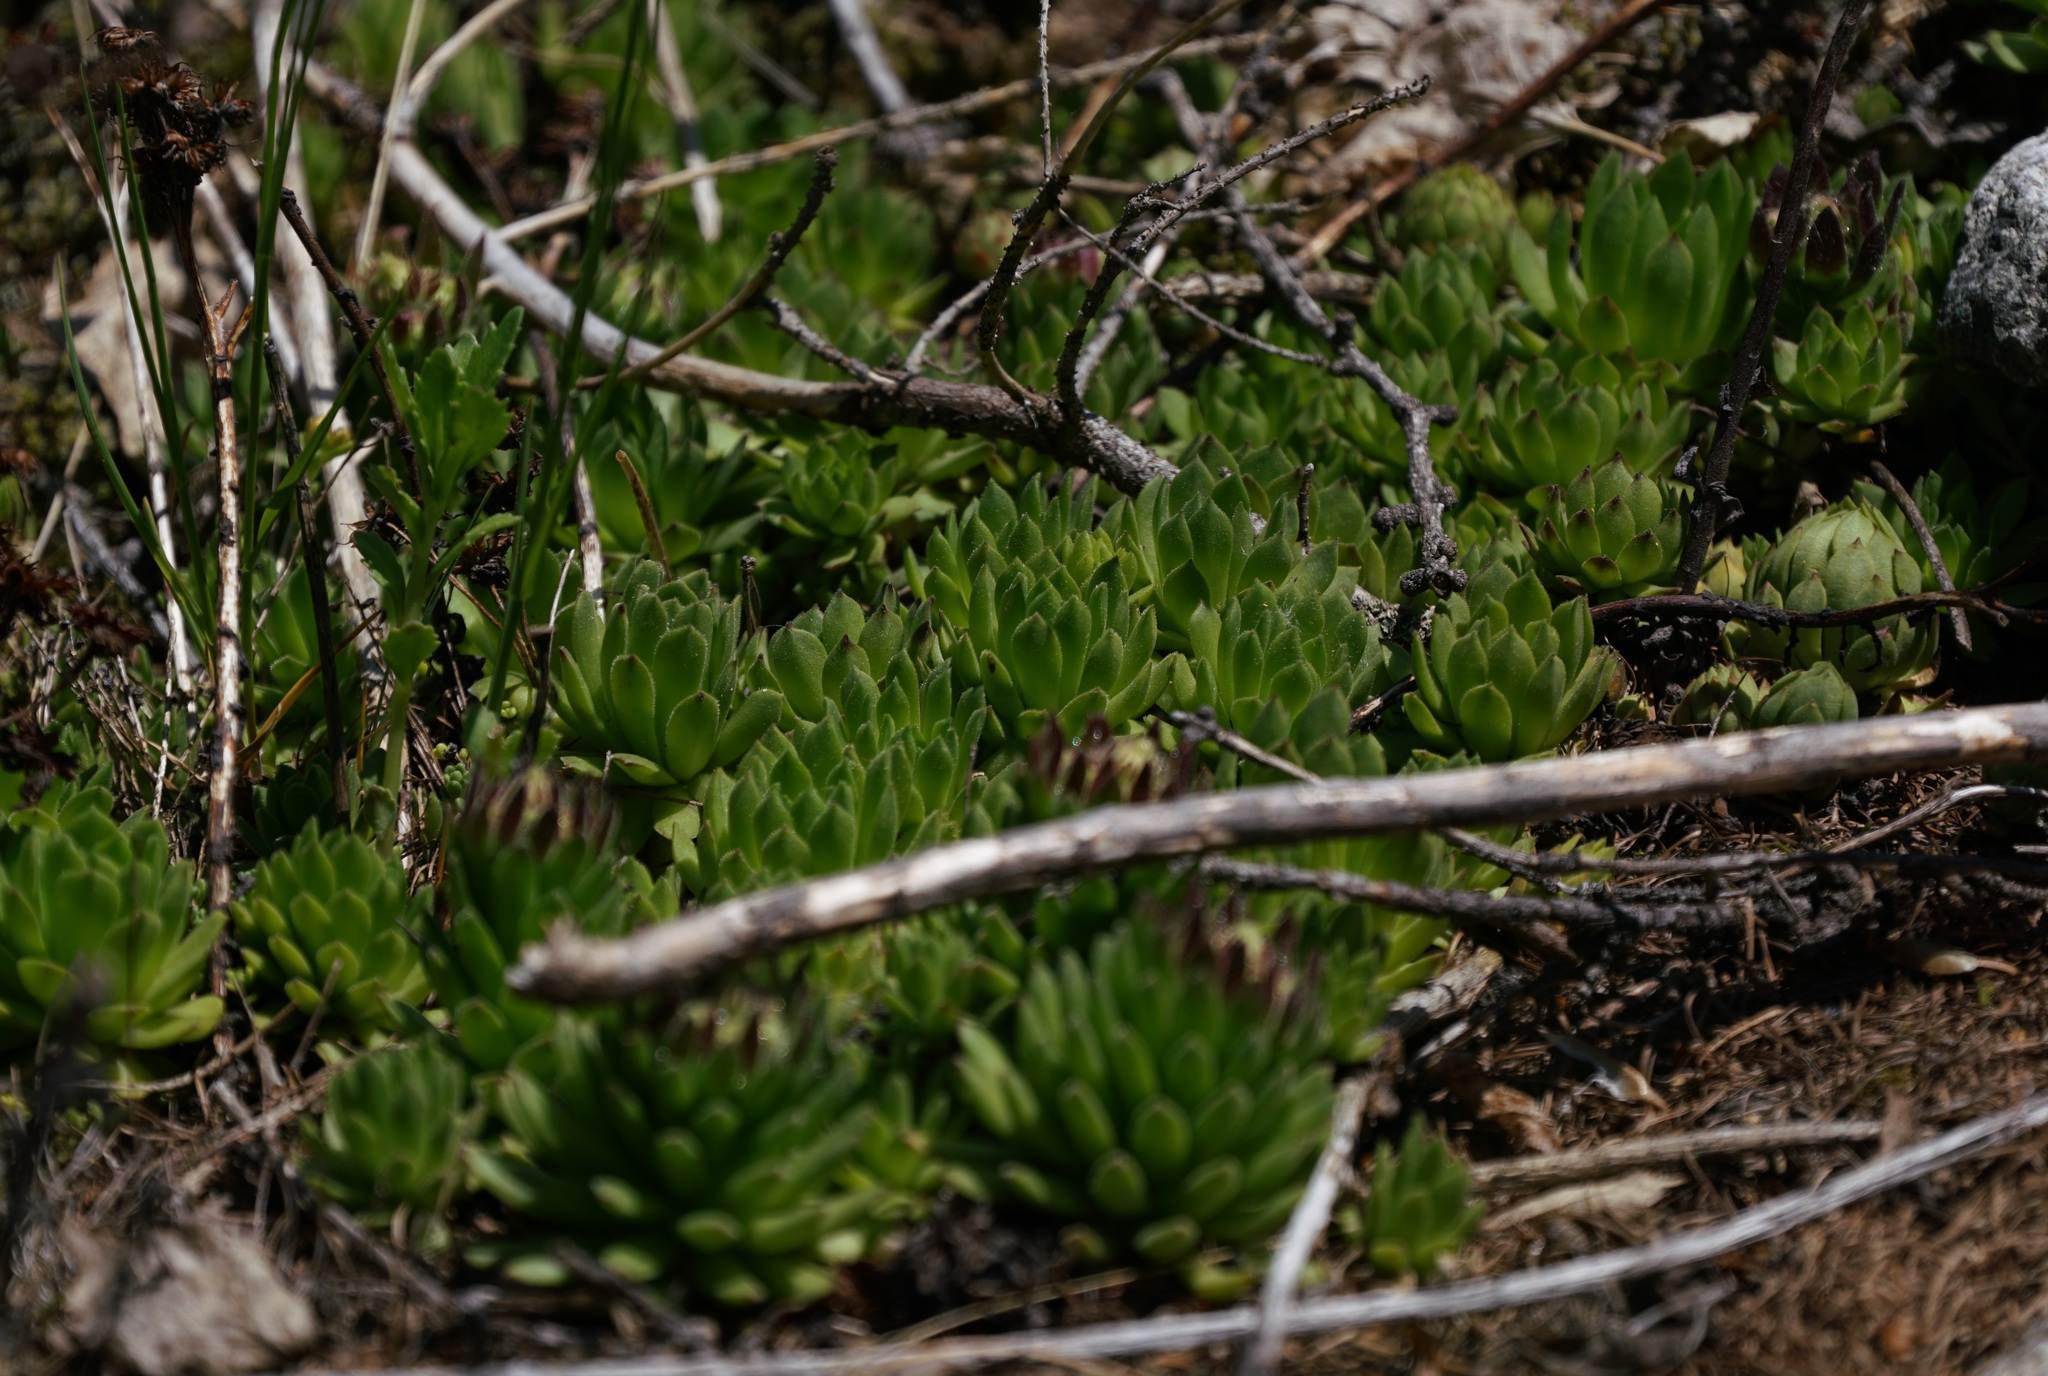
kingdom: Plantae
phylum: Tracheophyta
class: Magnoliopsida
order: Saxifragales
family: Crassulaceae
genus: Sempervivum
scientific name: Sempervivum montanum
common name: Mountain house-leek
